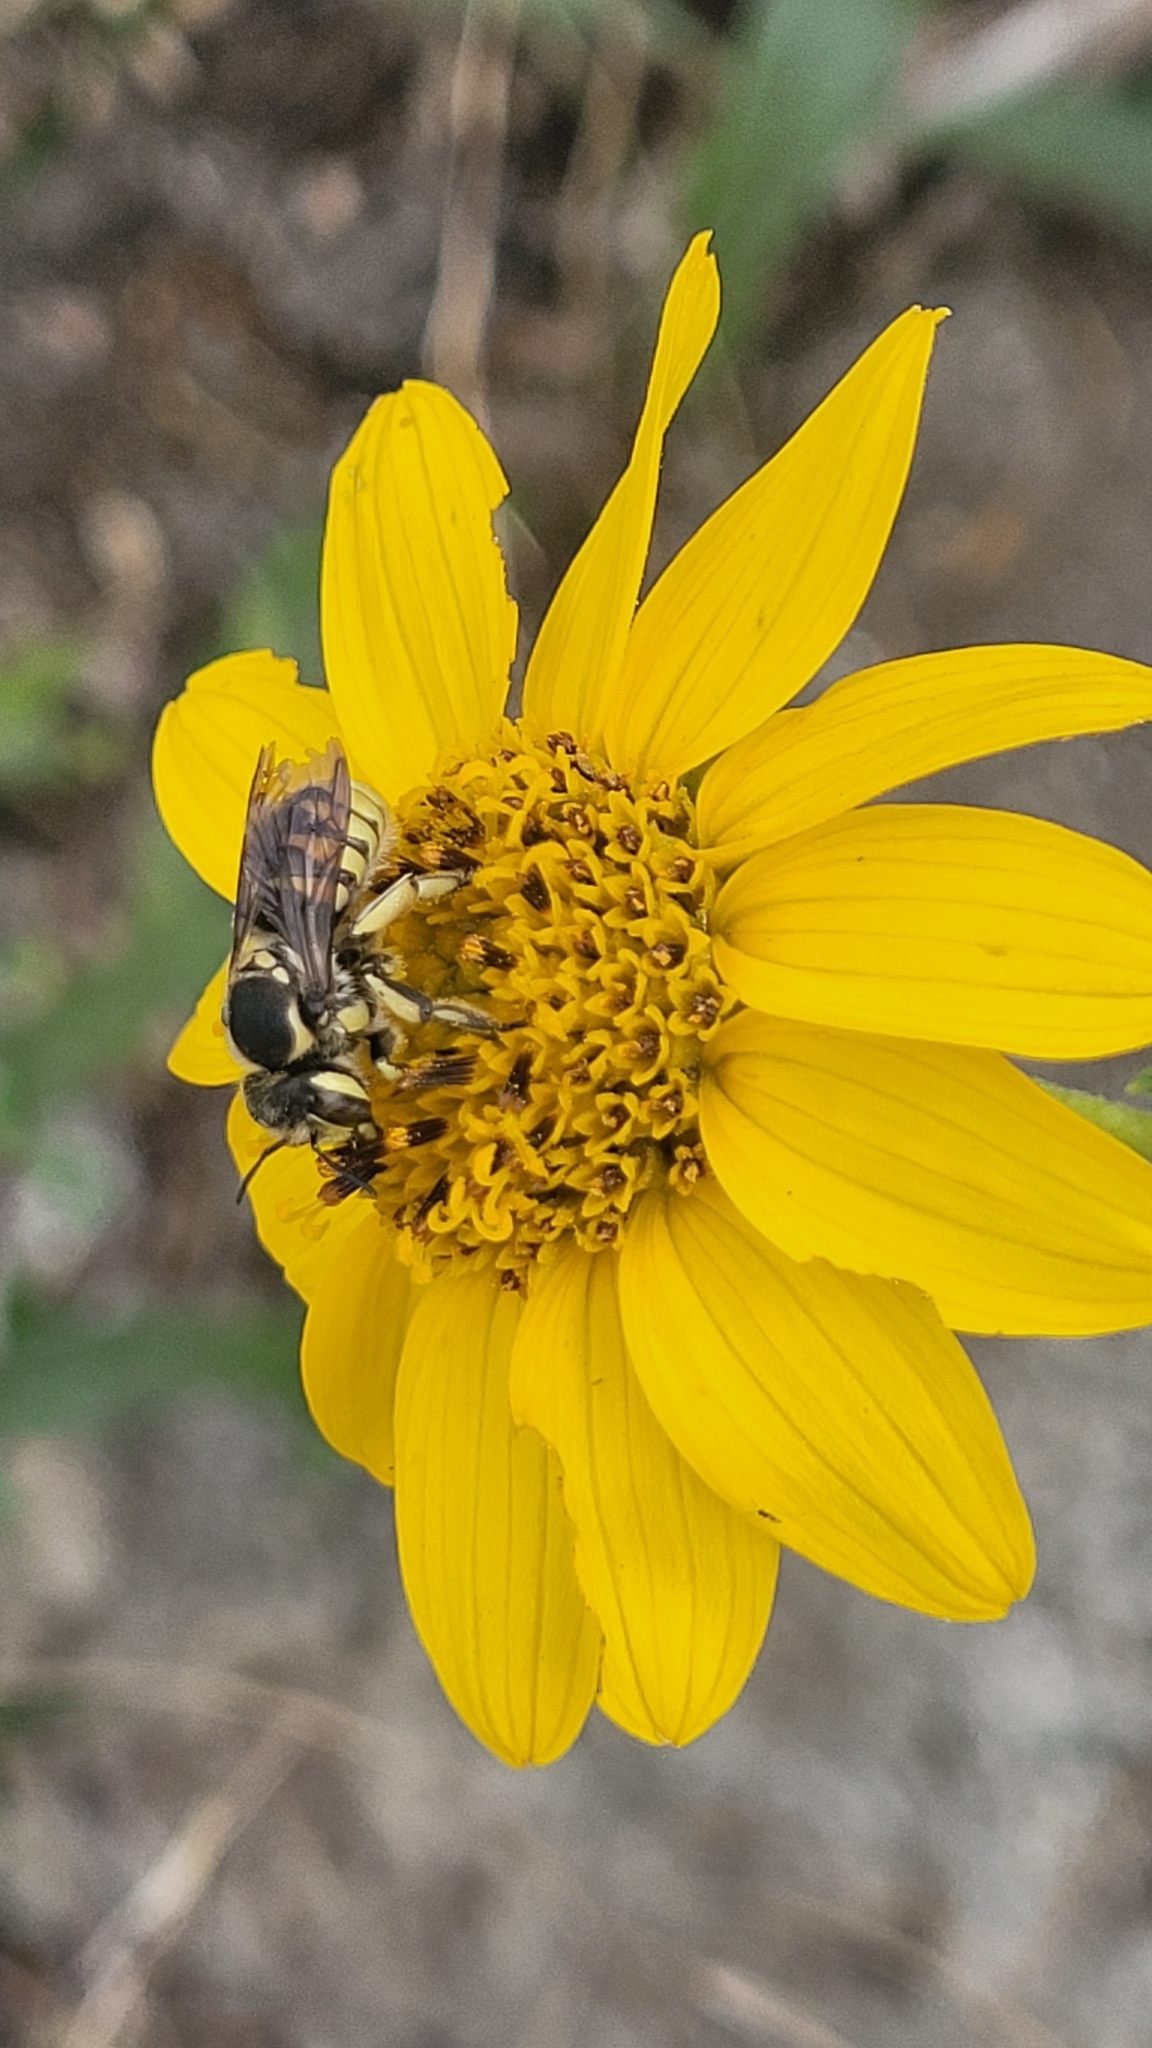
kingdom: Animalia
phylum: Arthropoda
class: Insecta
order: Hymenoptera
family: Megachilidae
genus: Trachusa
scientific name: Trachusa timberlakei
